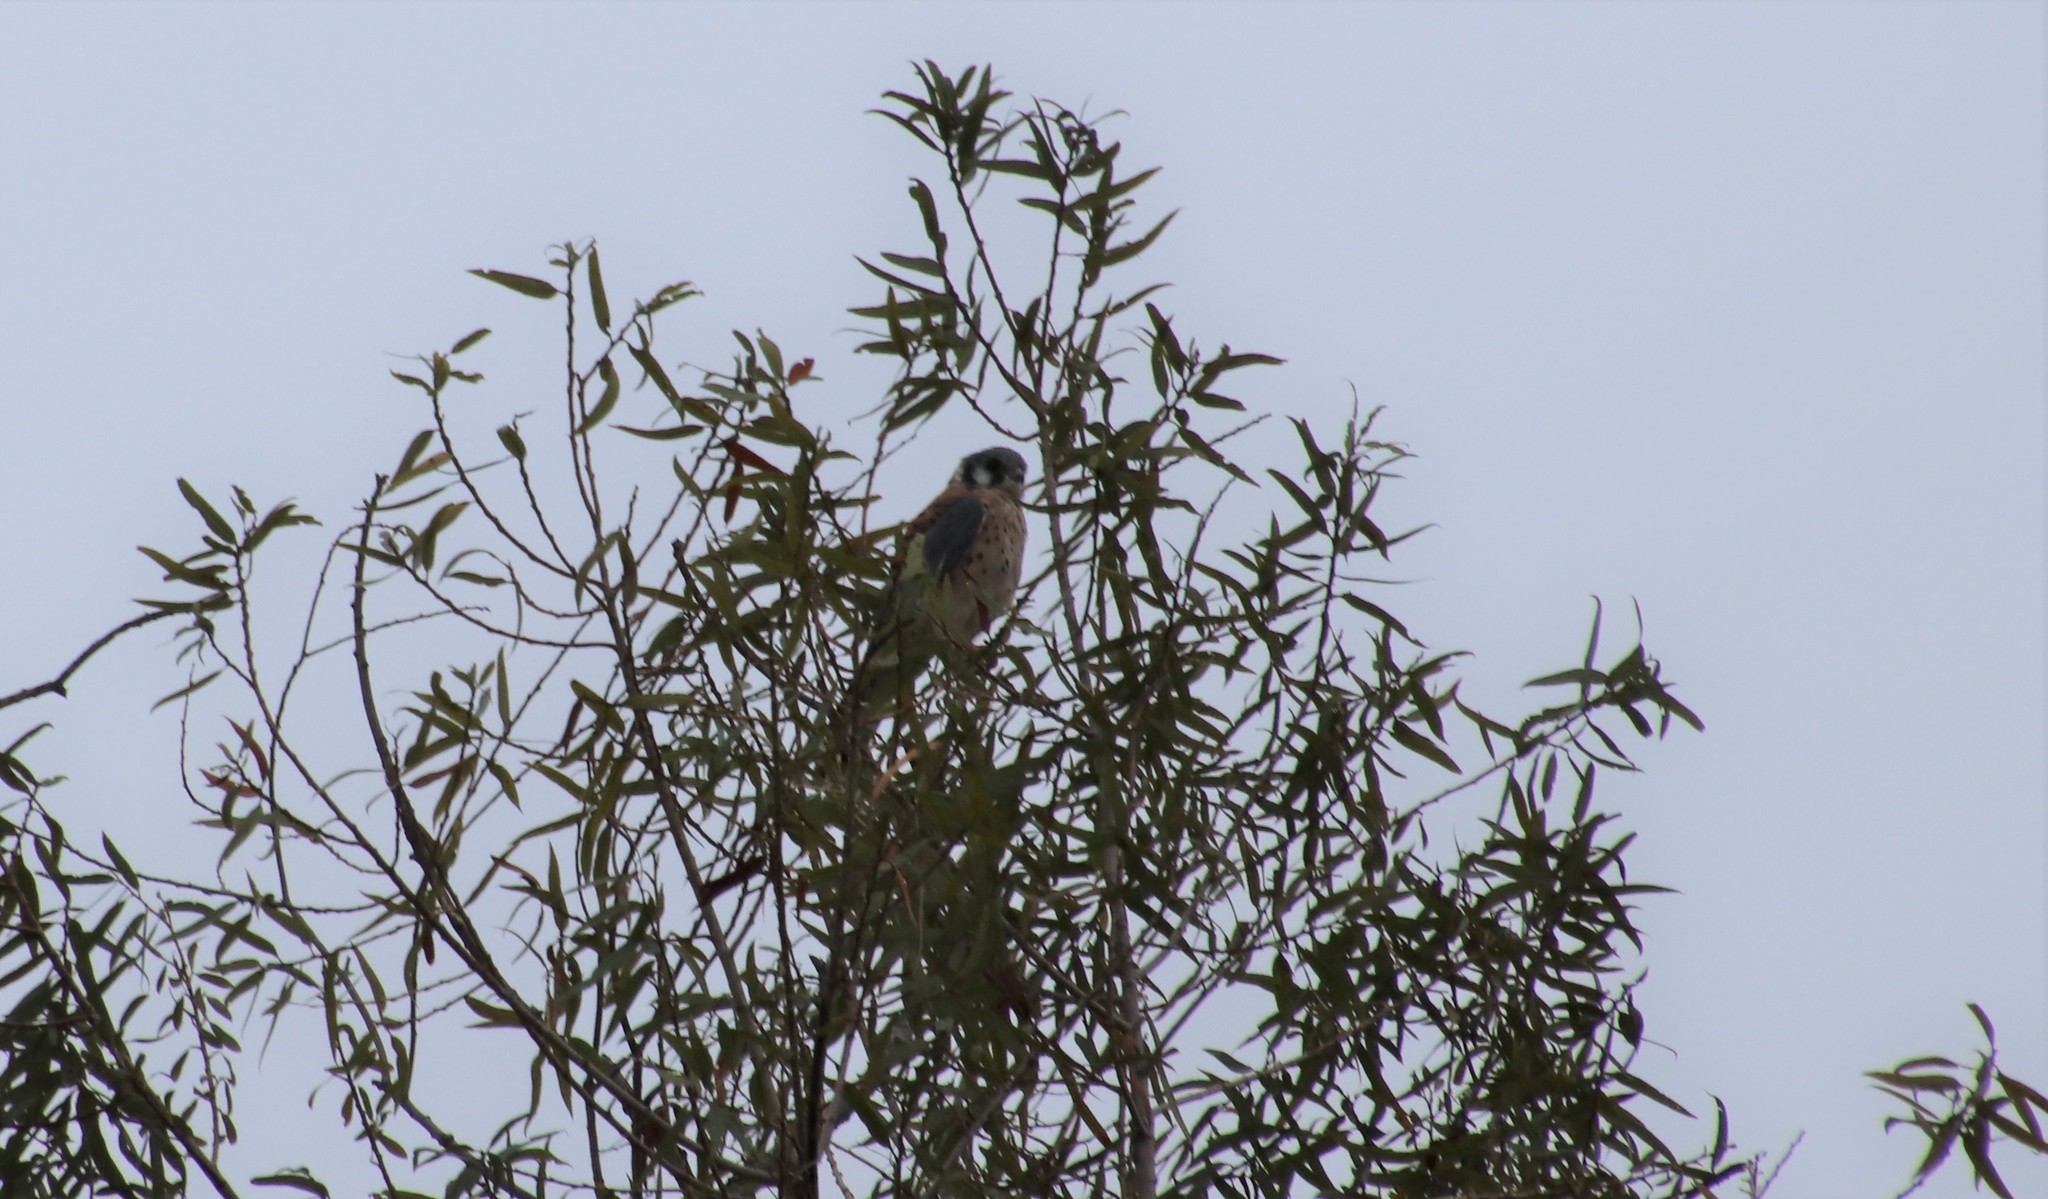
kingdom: Animalia
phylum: Chordata
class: Aves
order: Falconiformes
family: Falconidae
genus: Falco
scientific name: Falco sparverius
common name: American kestrel
